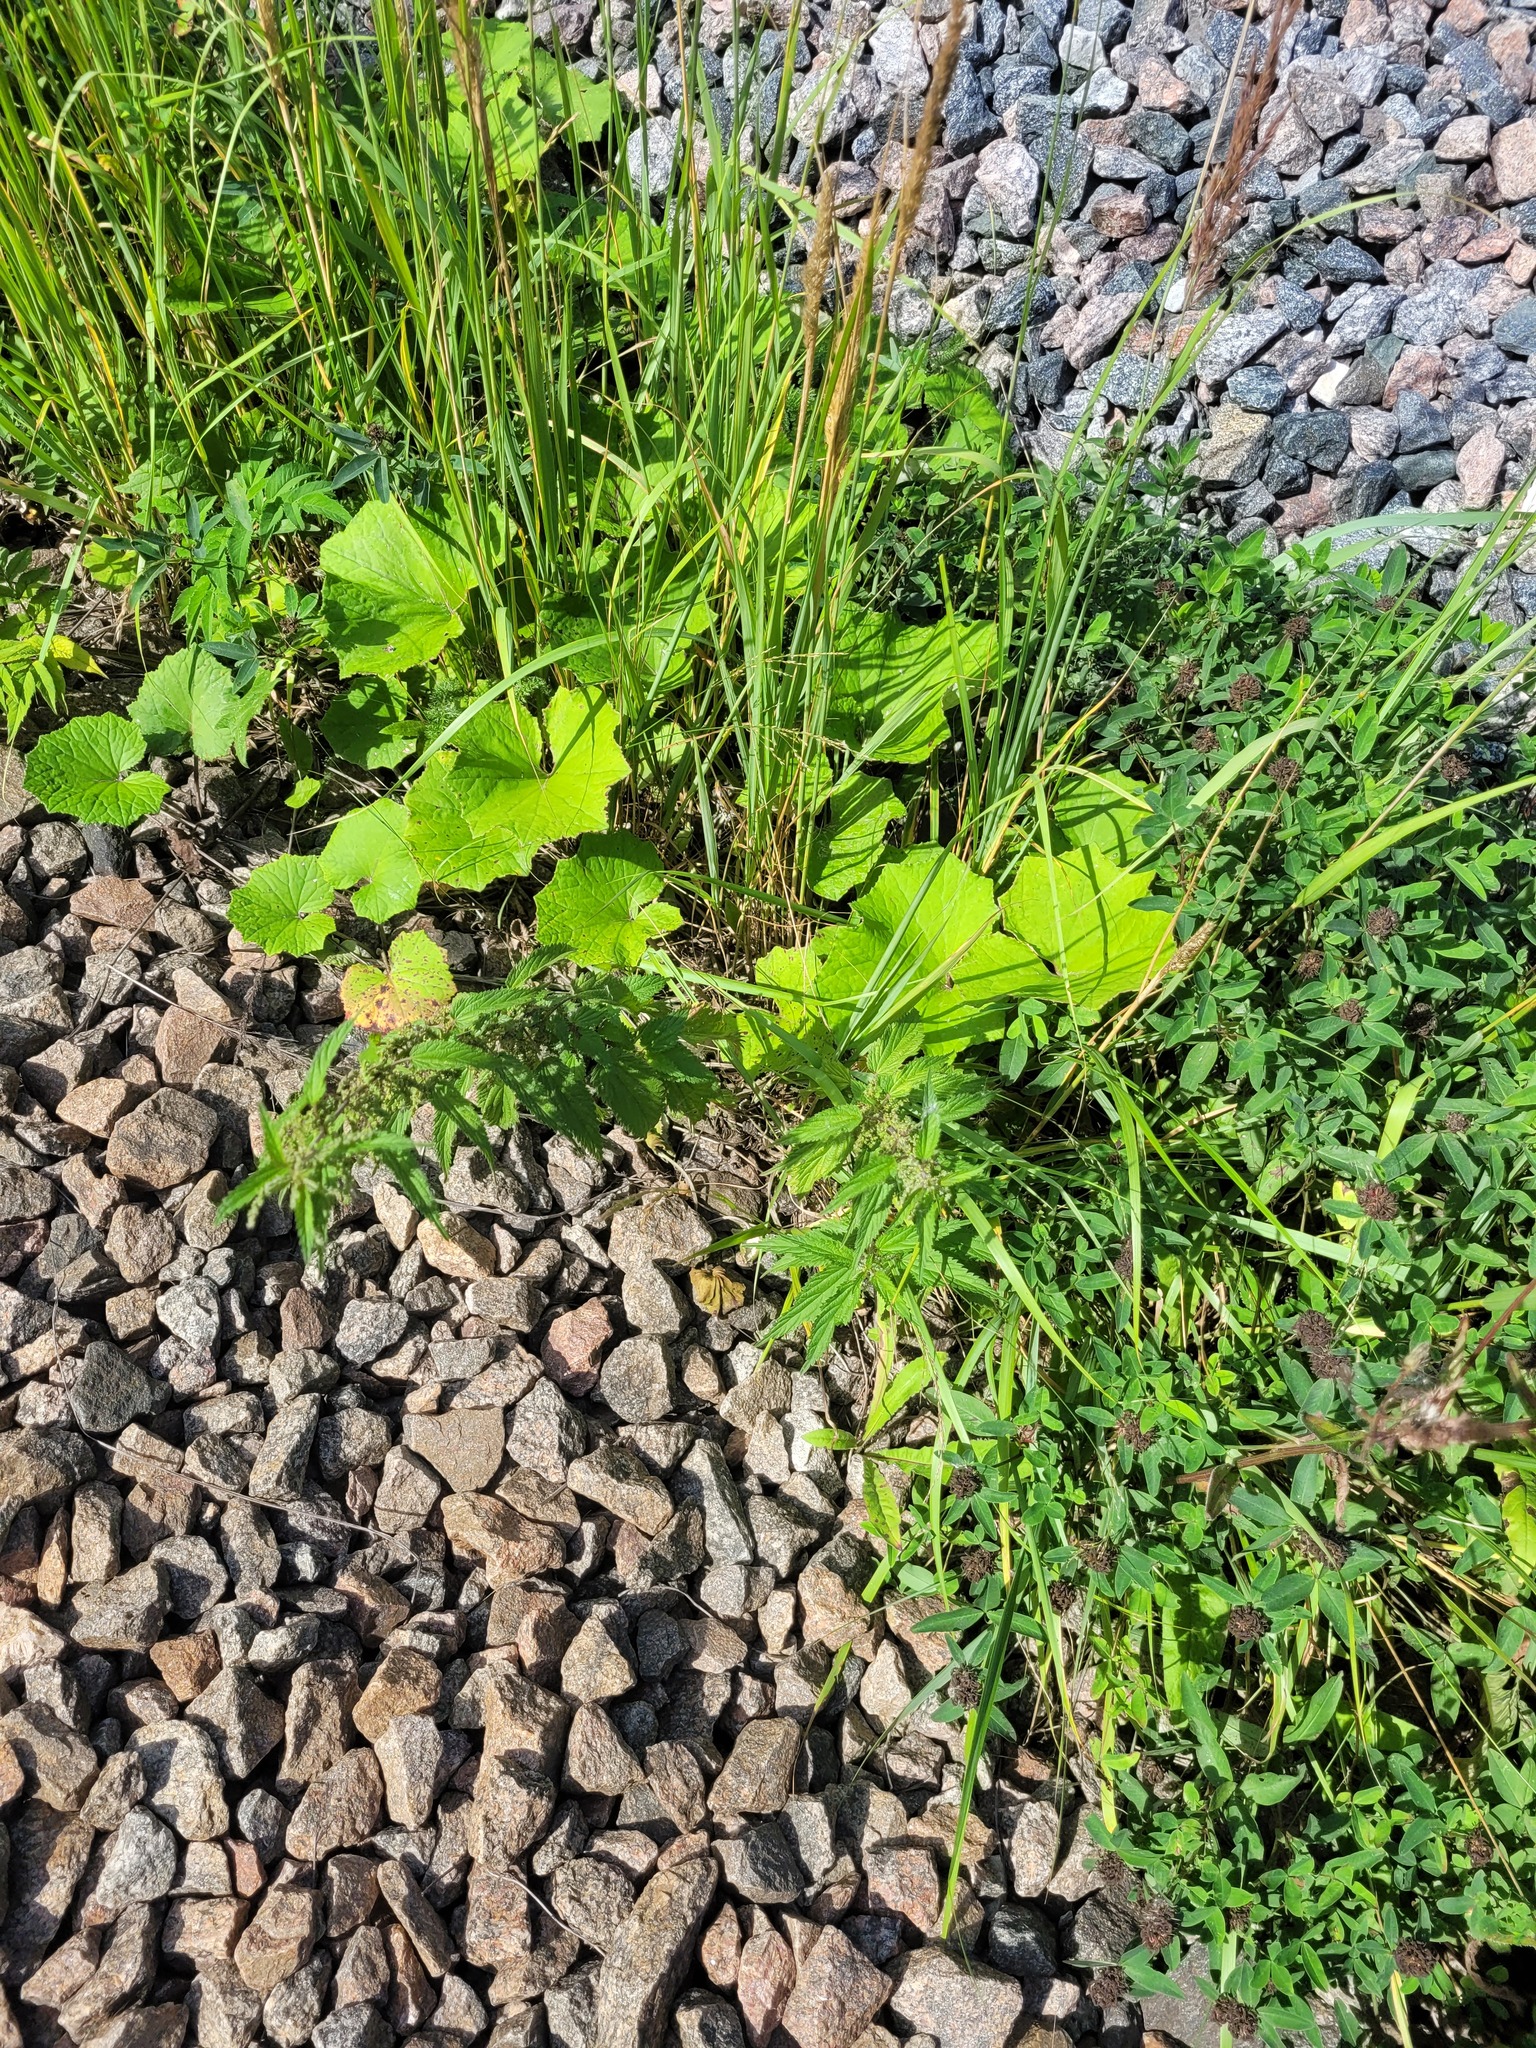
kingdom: Plantae
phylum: Tracheophyta
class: Magnoliopsida
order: Rosales
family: Urticaceae
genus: Urtica
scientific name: Urtica dioica
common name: Common nettle
